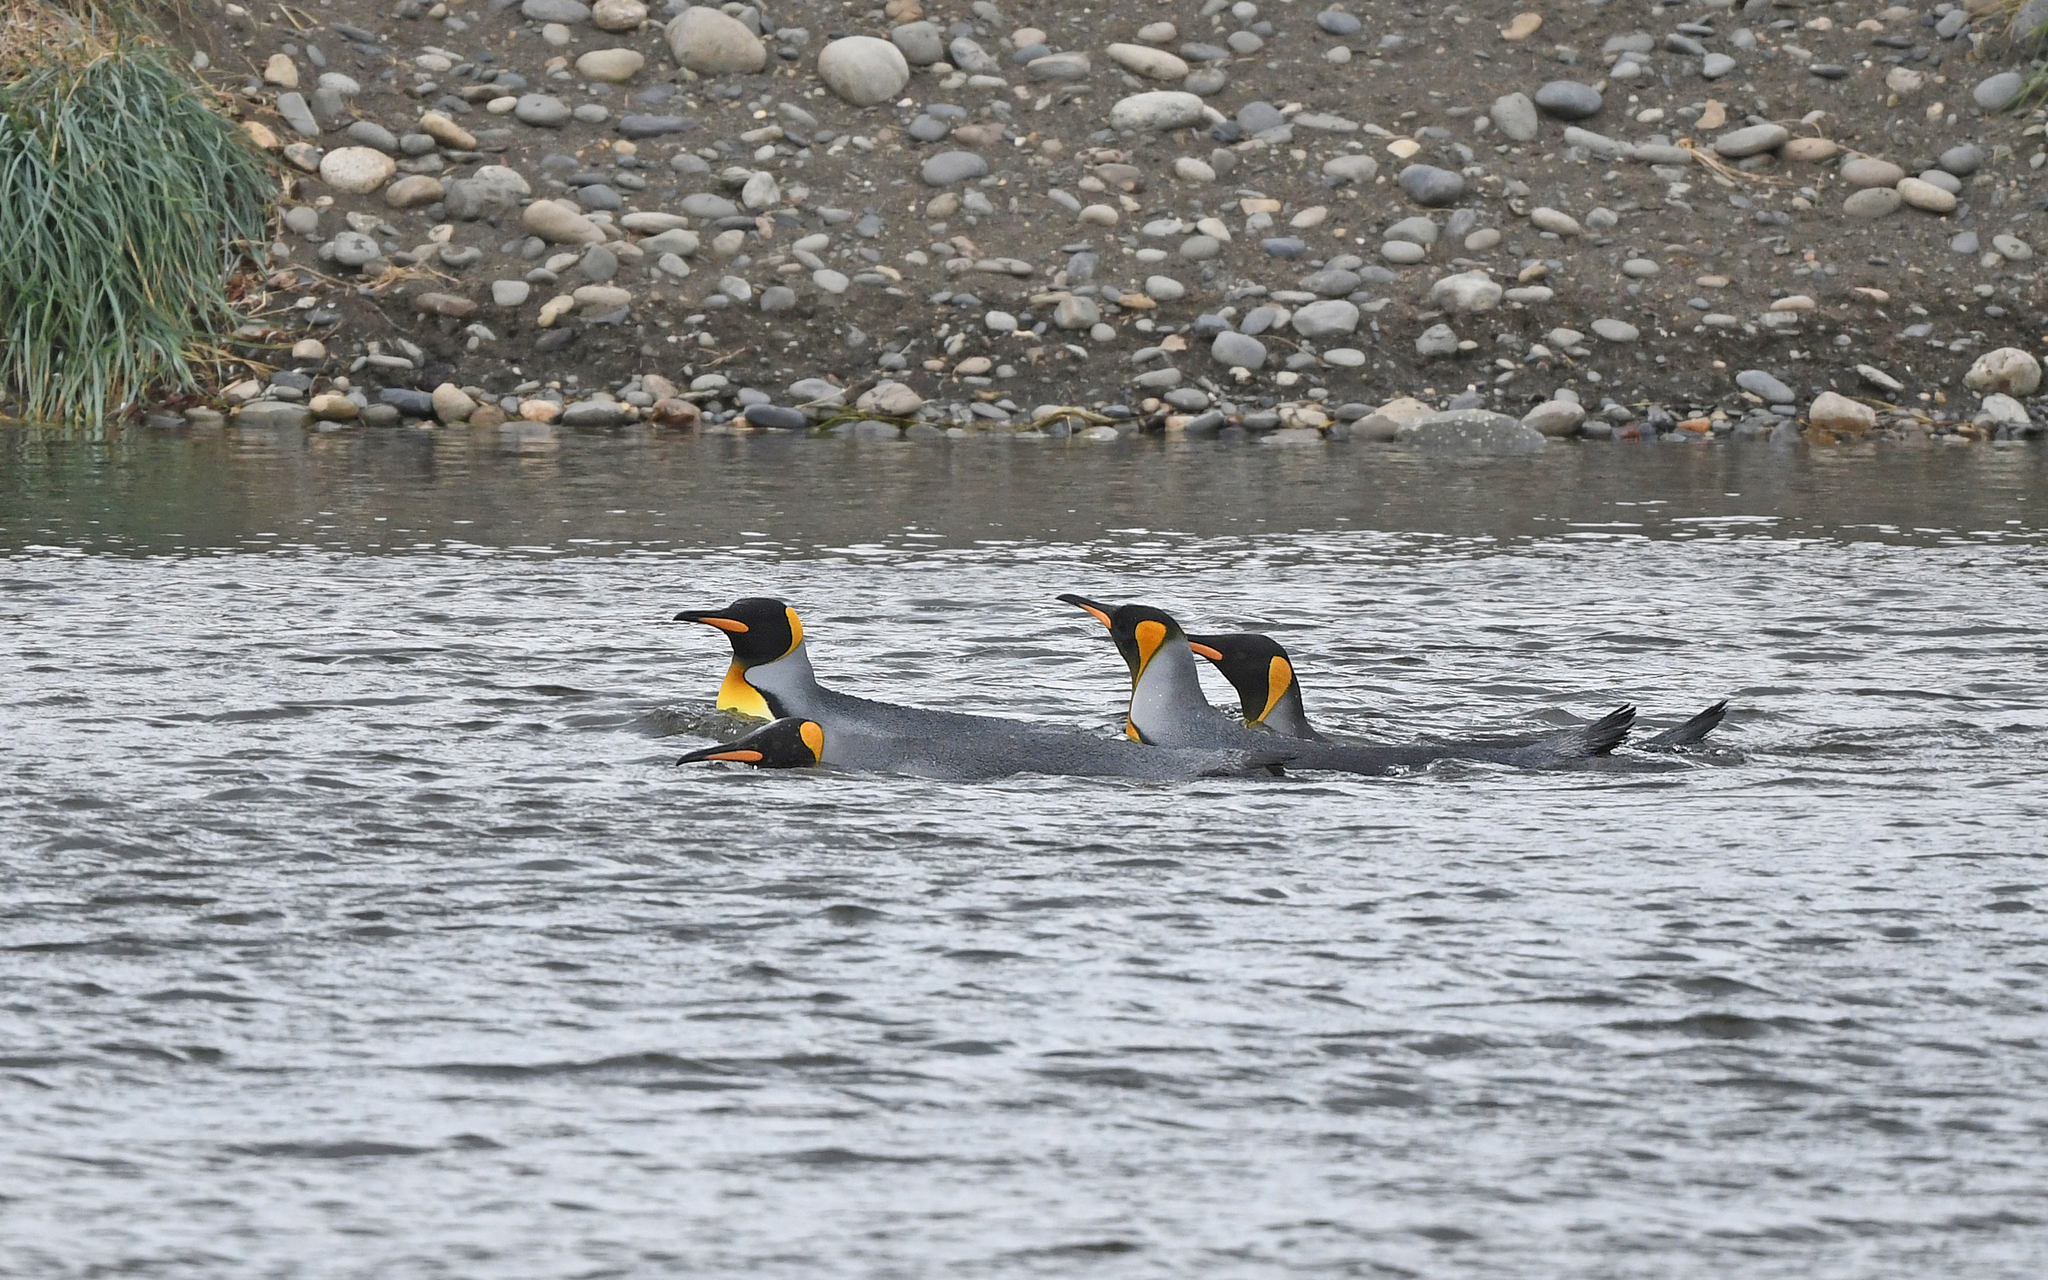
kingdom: Animalia
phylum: Chordata
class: Aves
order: Sphenisciformes
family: Spheniscidae
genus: Aptenodytes
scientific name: Aptenodytes patagonicus
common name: King penguin
